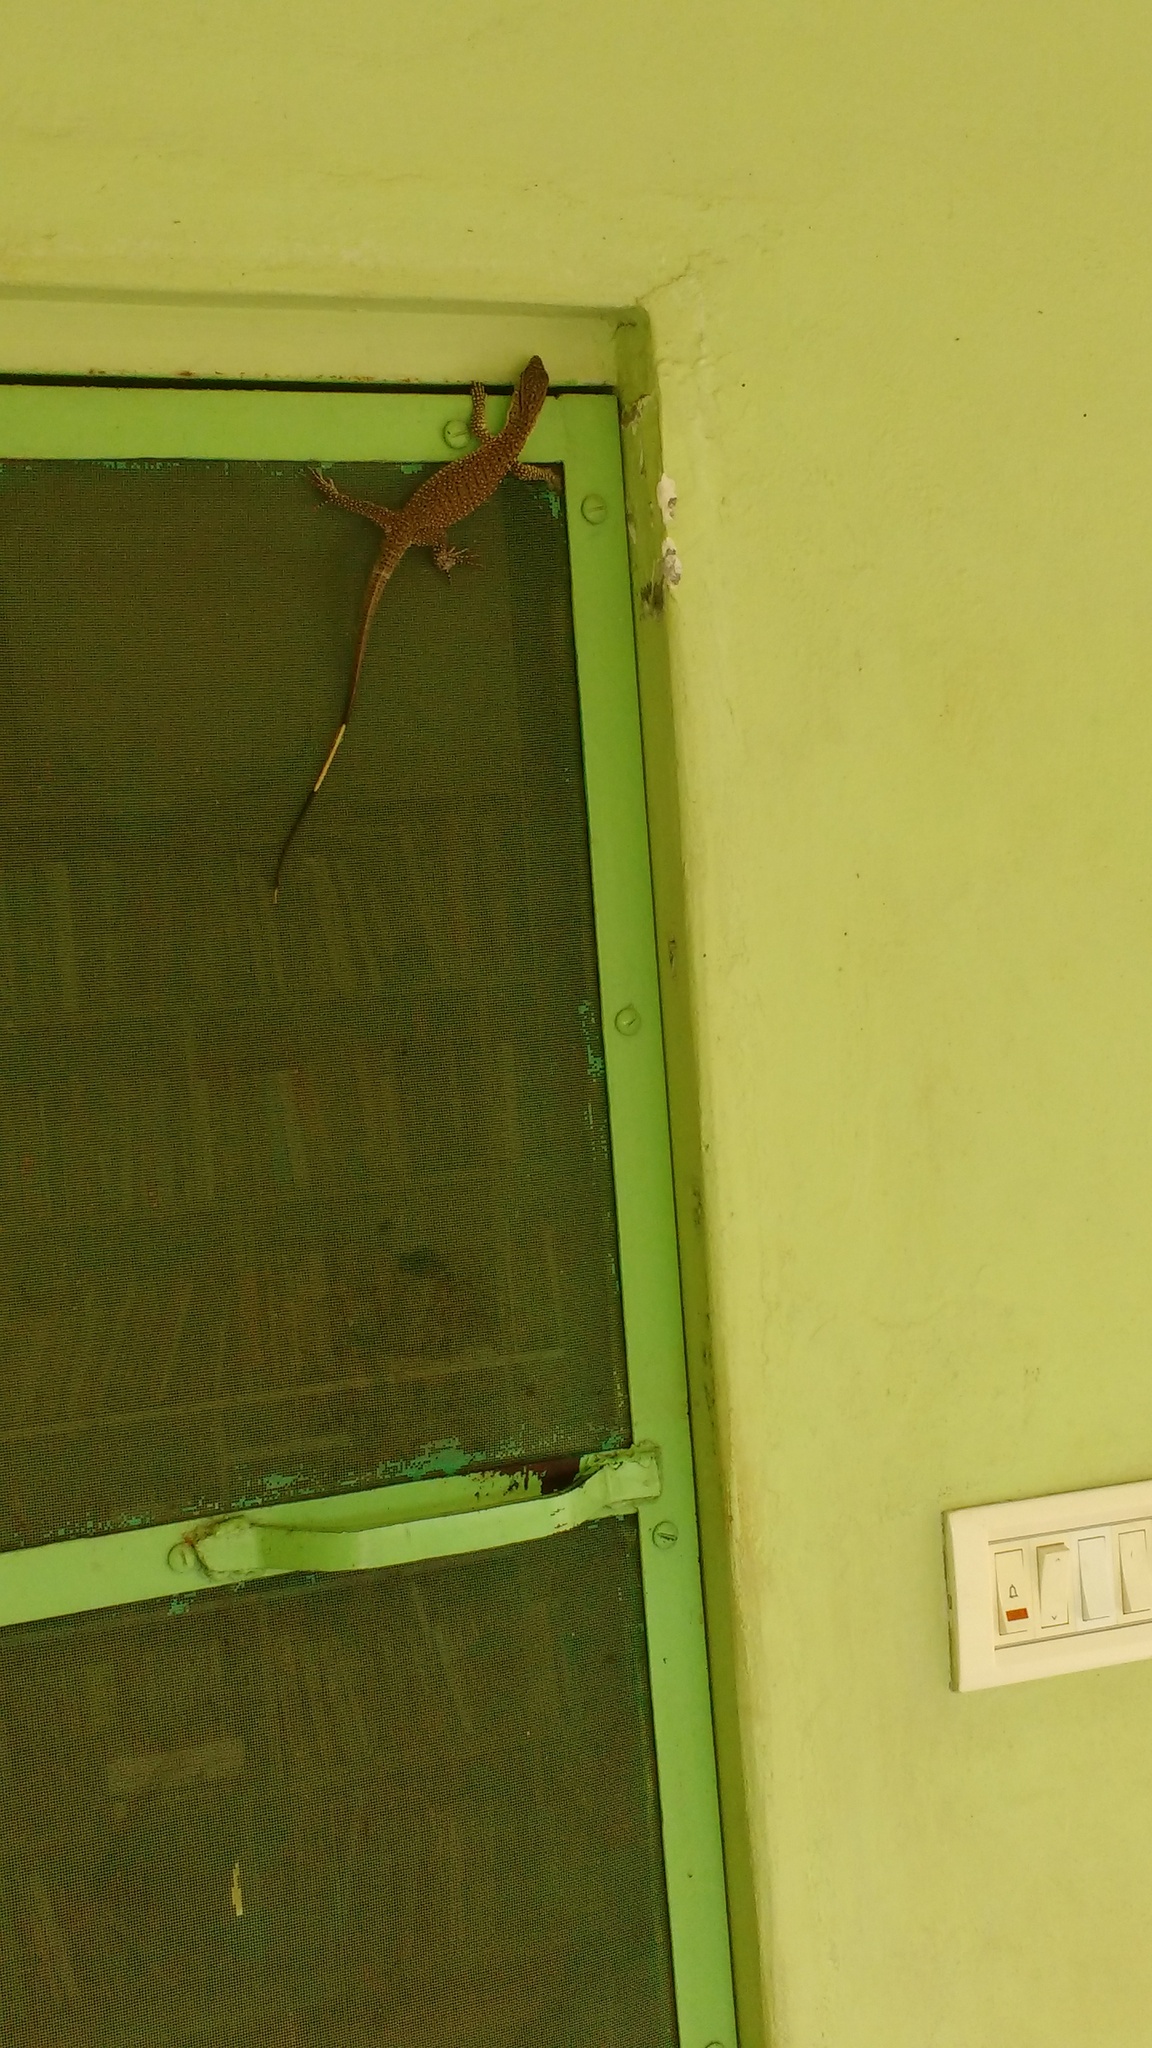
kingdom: Animalia
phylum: Chordata
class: Squamata
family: Varanidae
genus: Varanus
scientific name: Varanus bengalensis
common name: Bengal monitor
